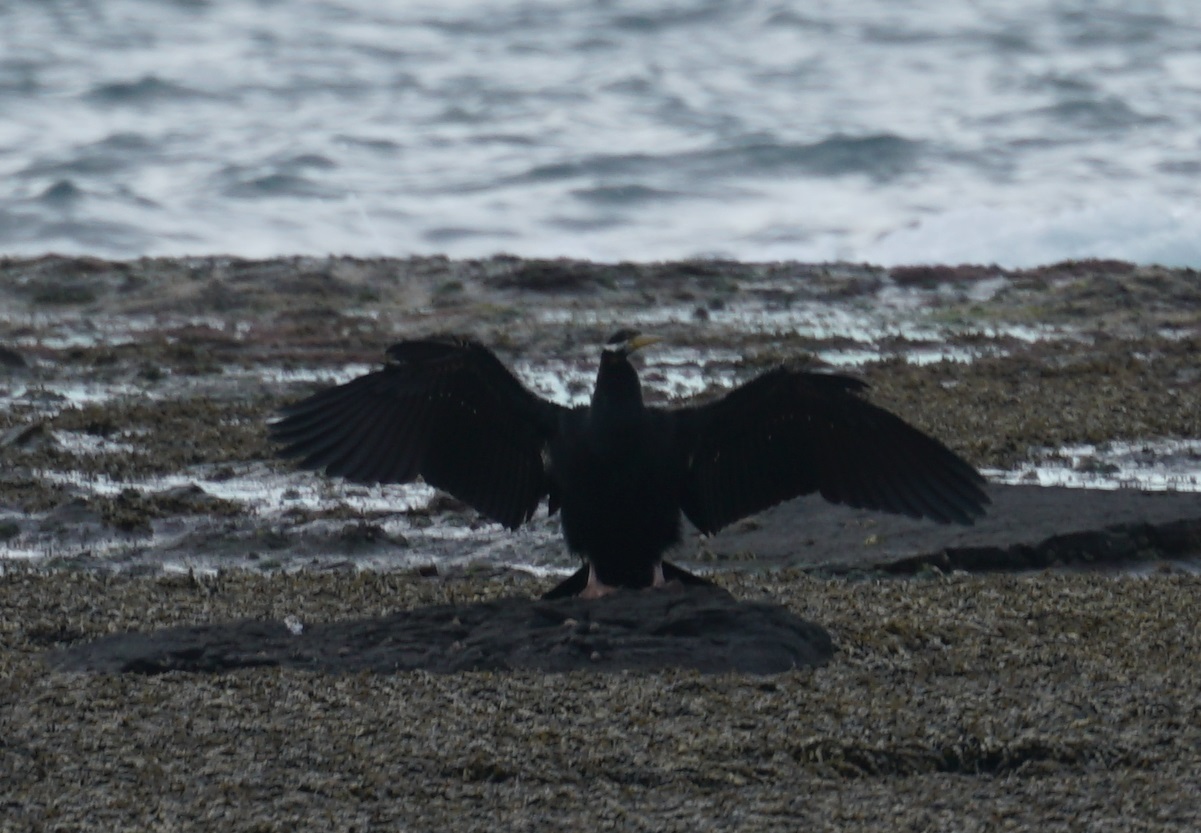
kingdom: Animalia
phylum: Chordata
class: Aves
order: Suliformes
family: Anhingidae
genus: Anhinga
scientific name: Anhinga novaehollandiae
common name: Australasian darter
